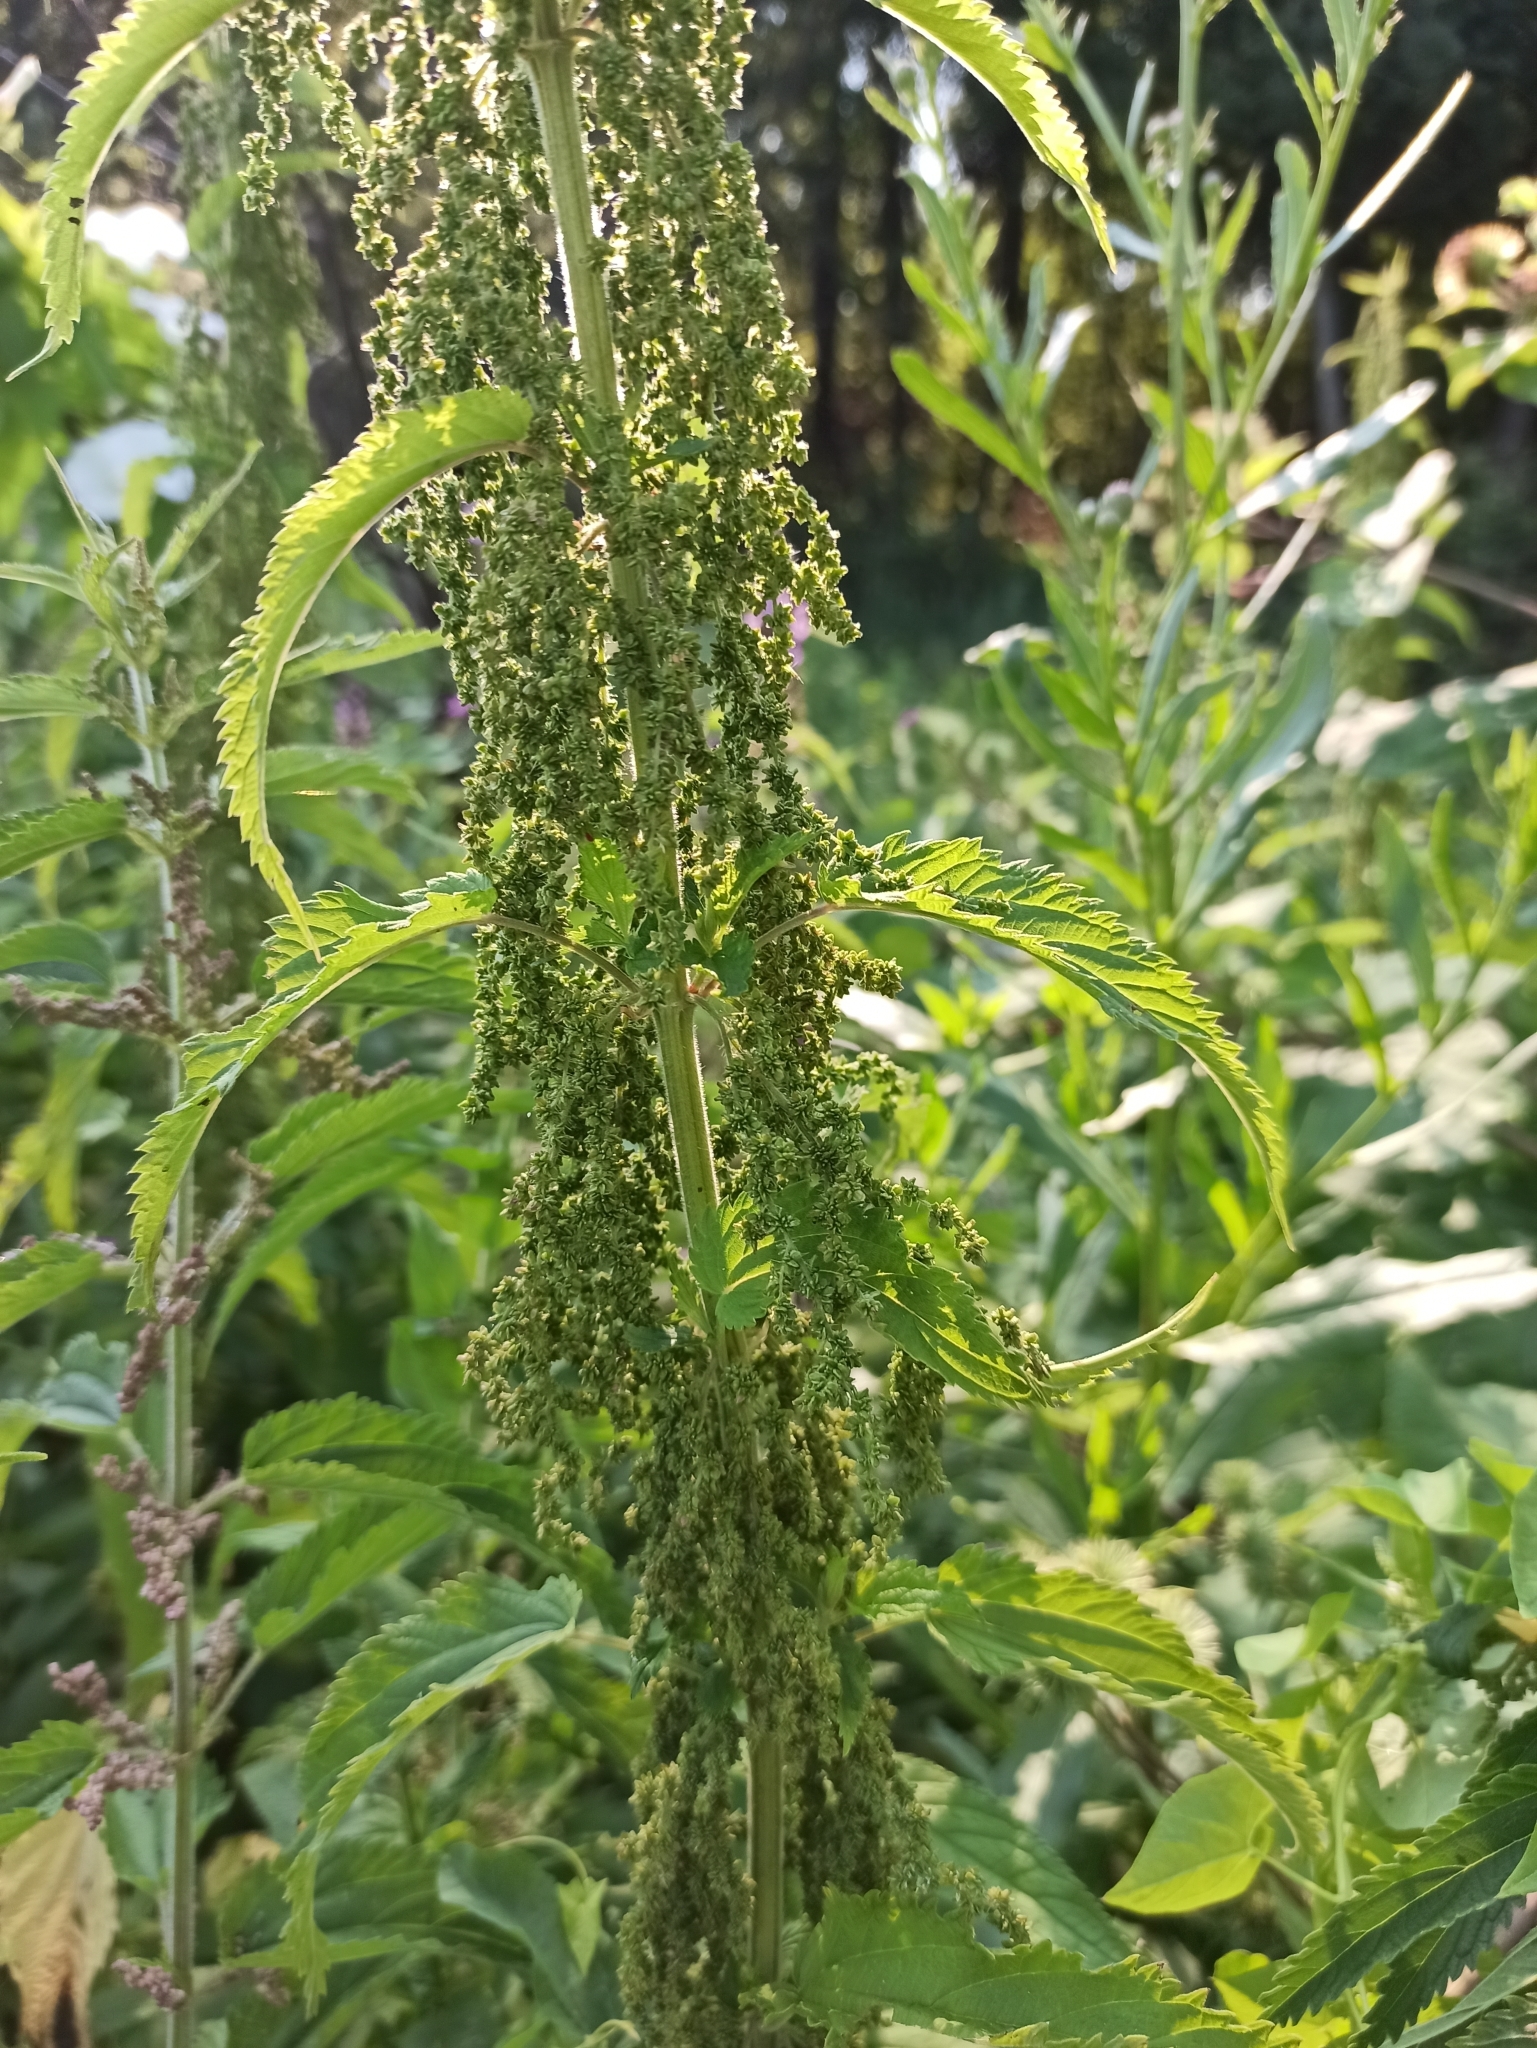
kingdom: Plantae
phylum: Tracheophyta
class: Magnoliopsida
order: Rosales
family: Urticaceae
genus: Urtica
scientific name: Urtica dioica
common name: Common nettle
